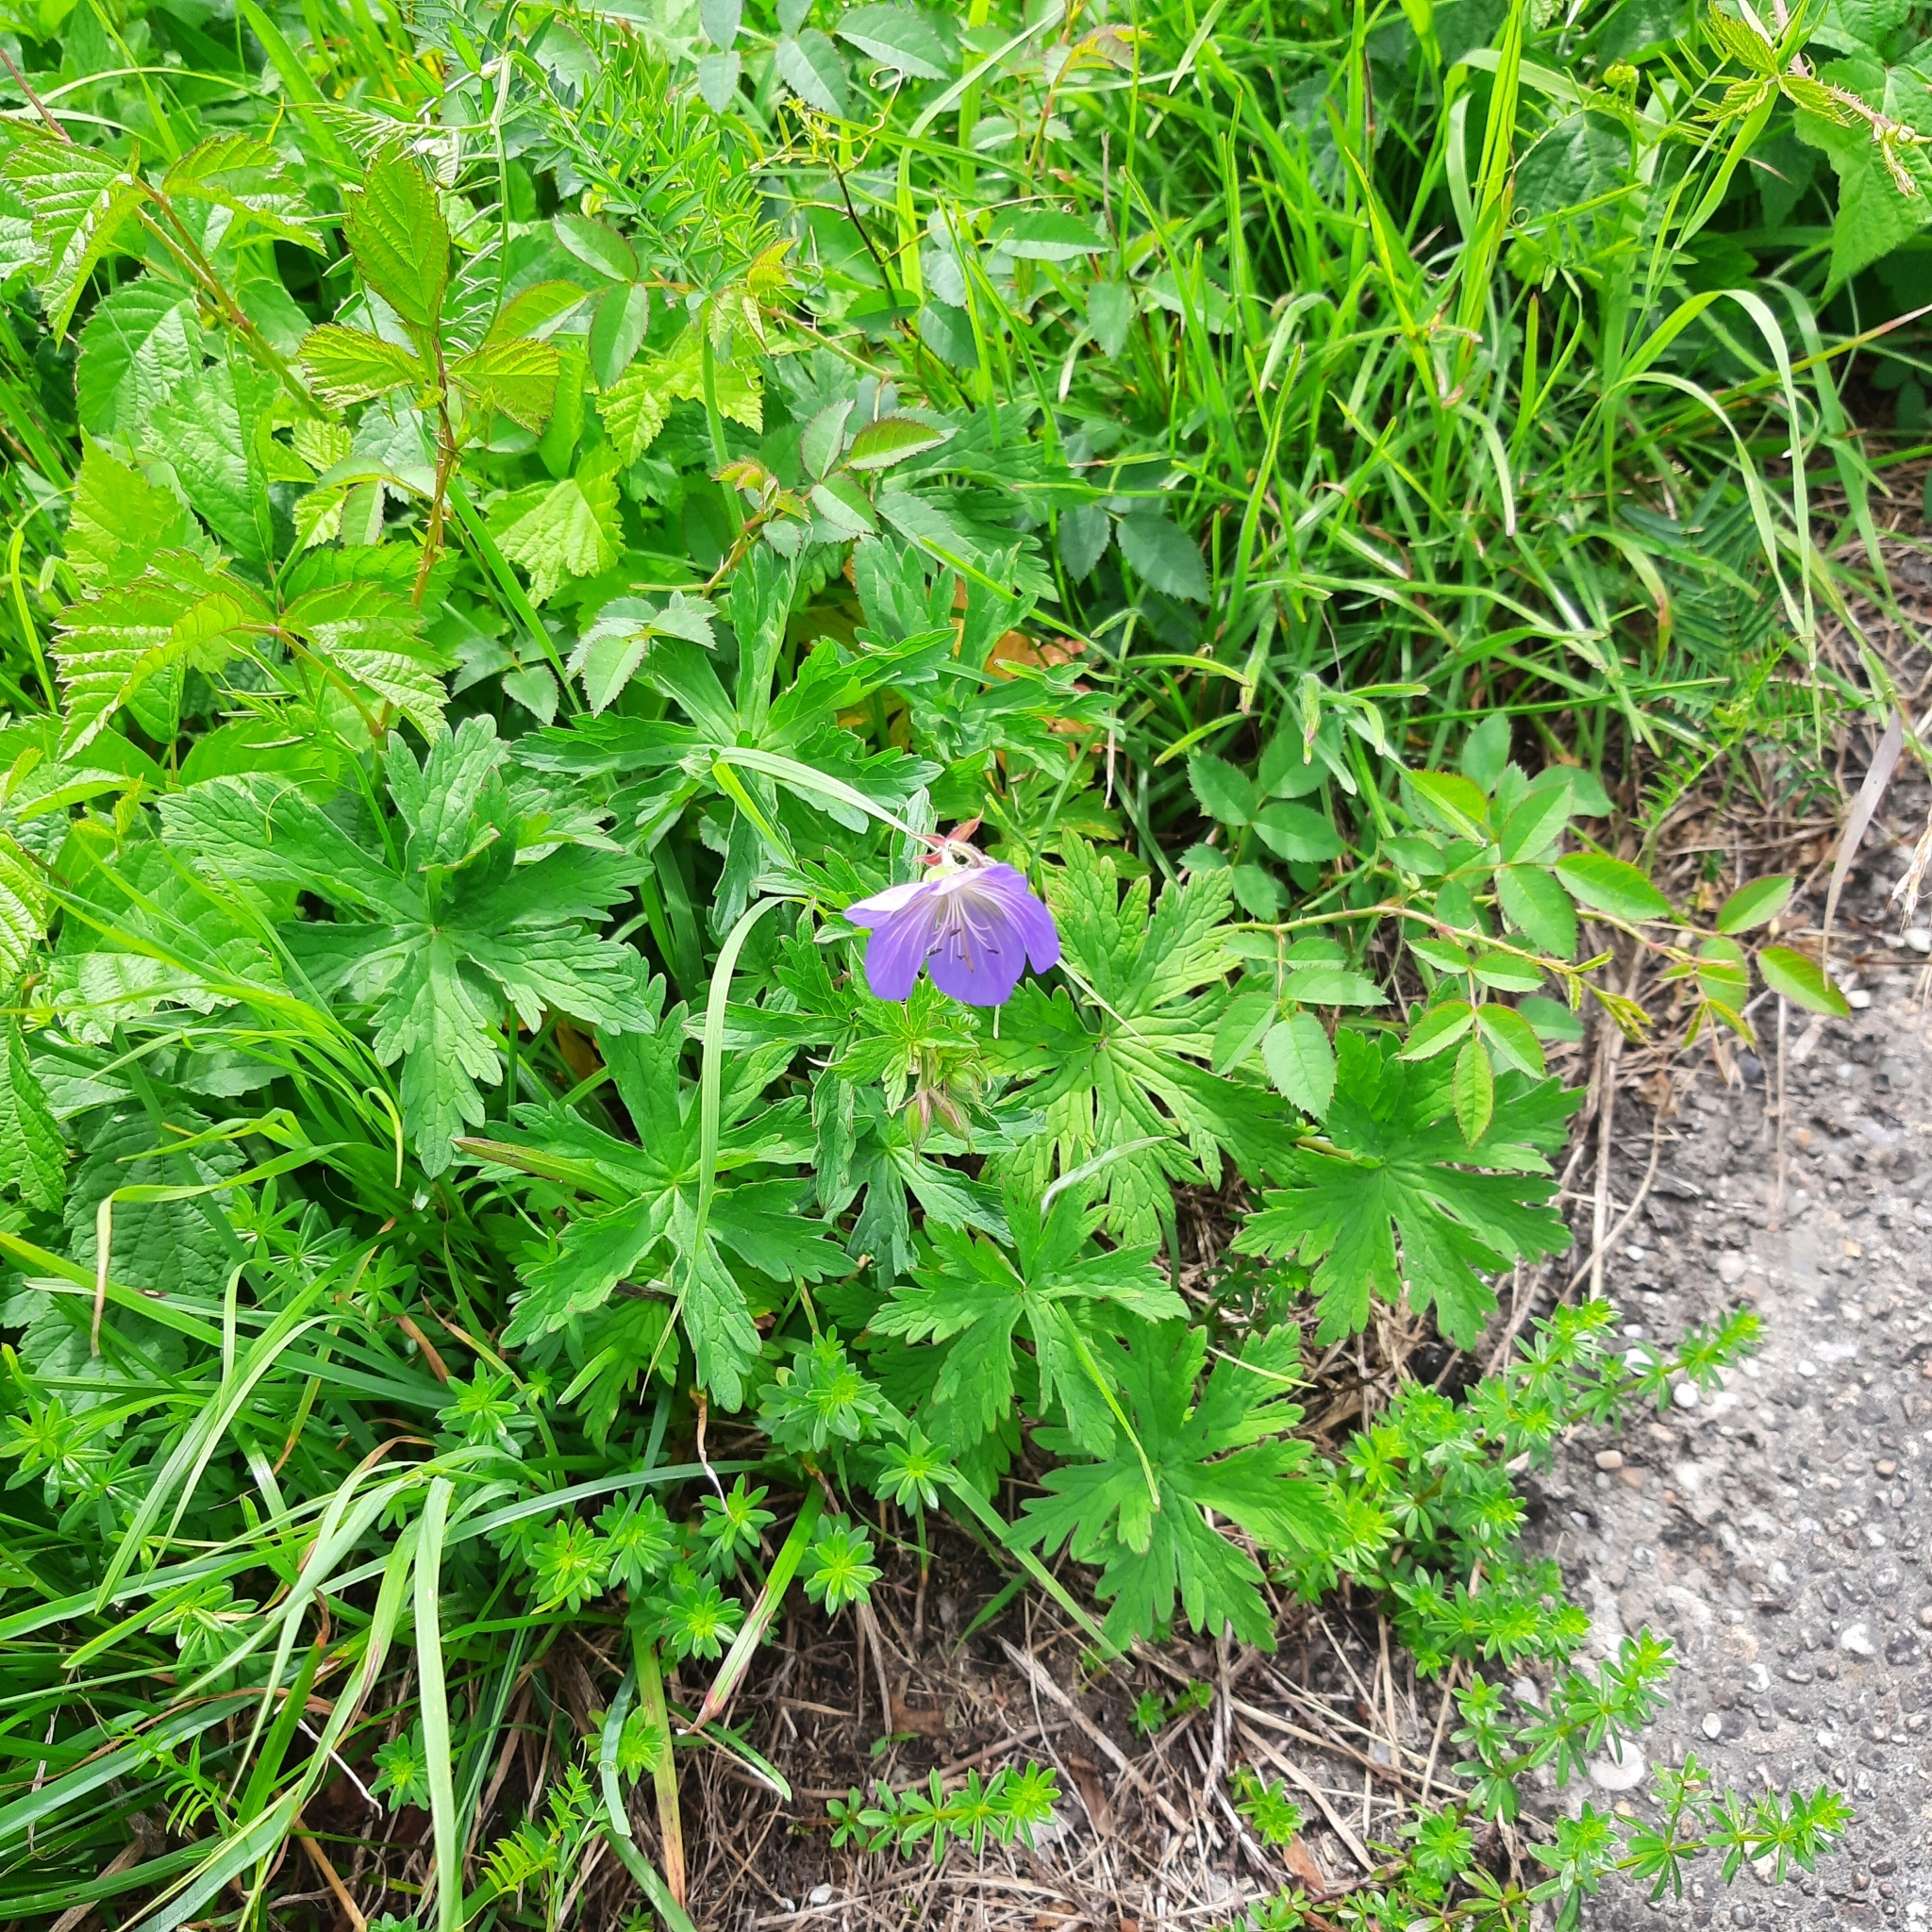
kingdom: Plantae
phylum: Tracheophyta
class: Magnoliopsida
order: Geraniales
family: Geraniaceae
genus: Geranium
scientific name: Geranium pratense
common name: Meadow crane's-bill
